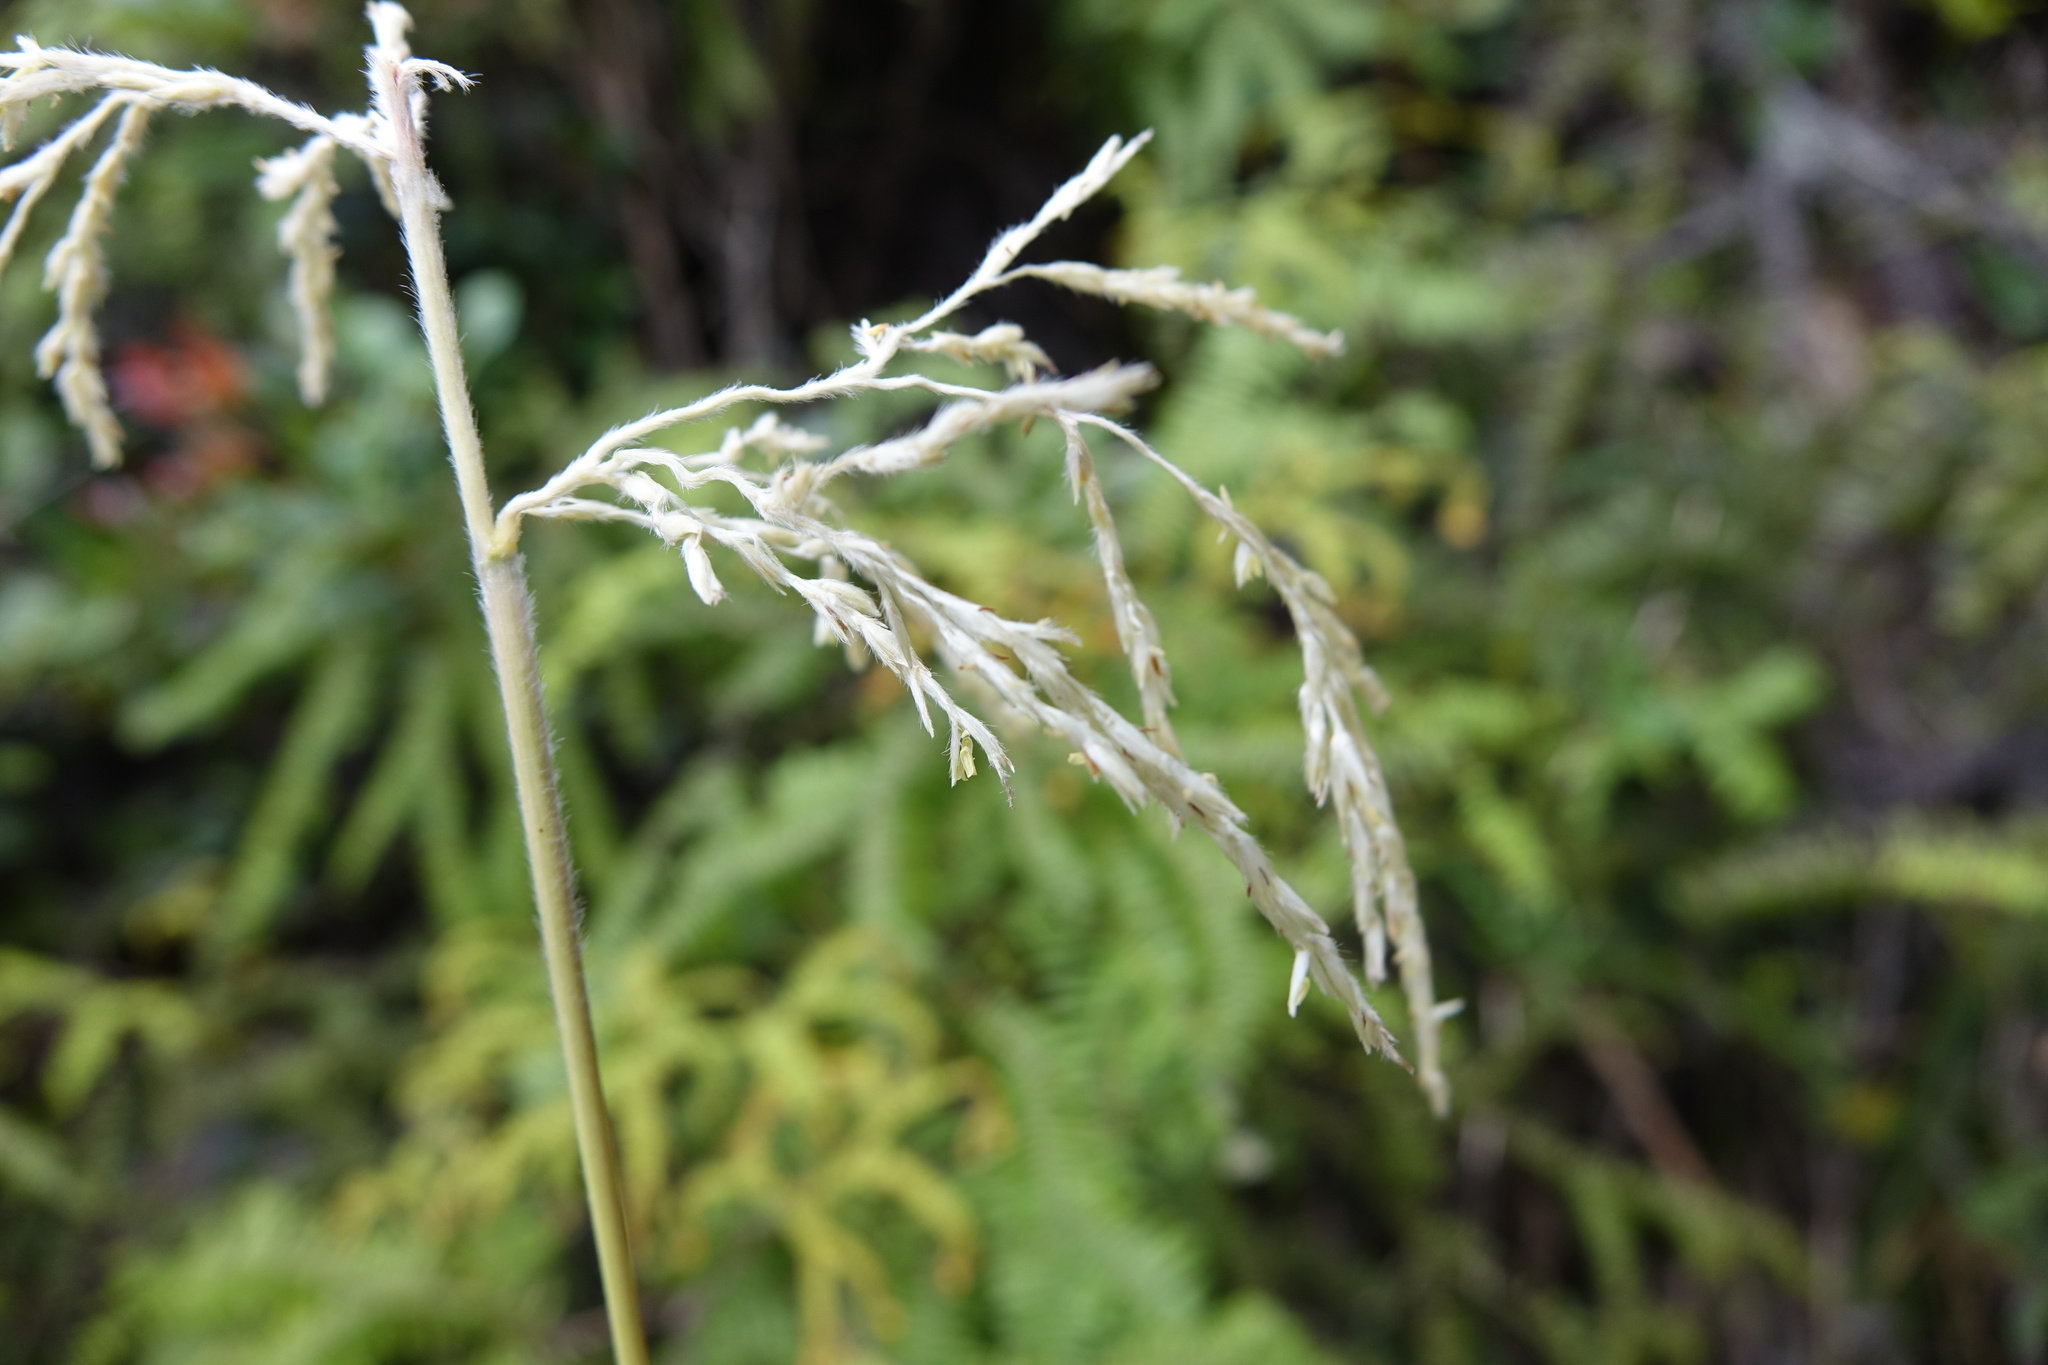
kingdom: Plantae
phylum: Tracheophyta
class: Liliopsida
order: Poales
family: Poaceae
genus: Lasiorhachis
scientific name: Lasiorhachis hildebrandtii
